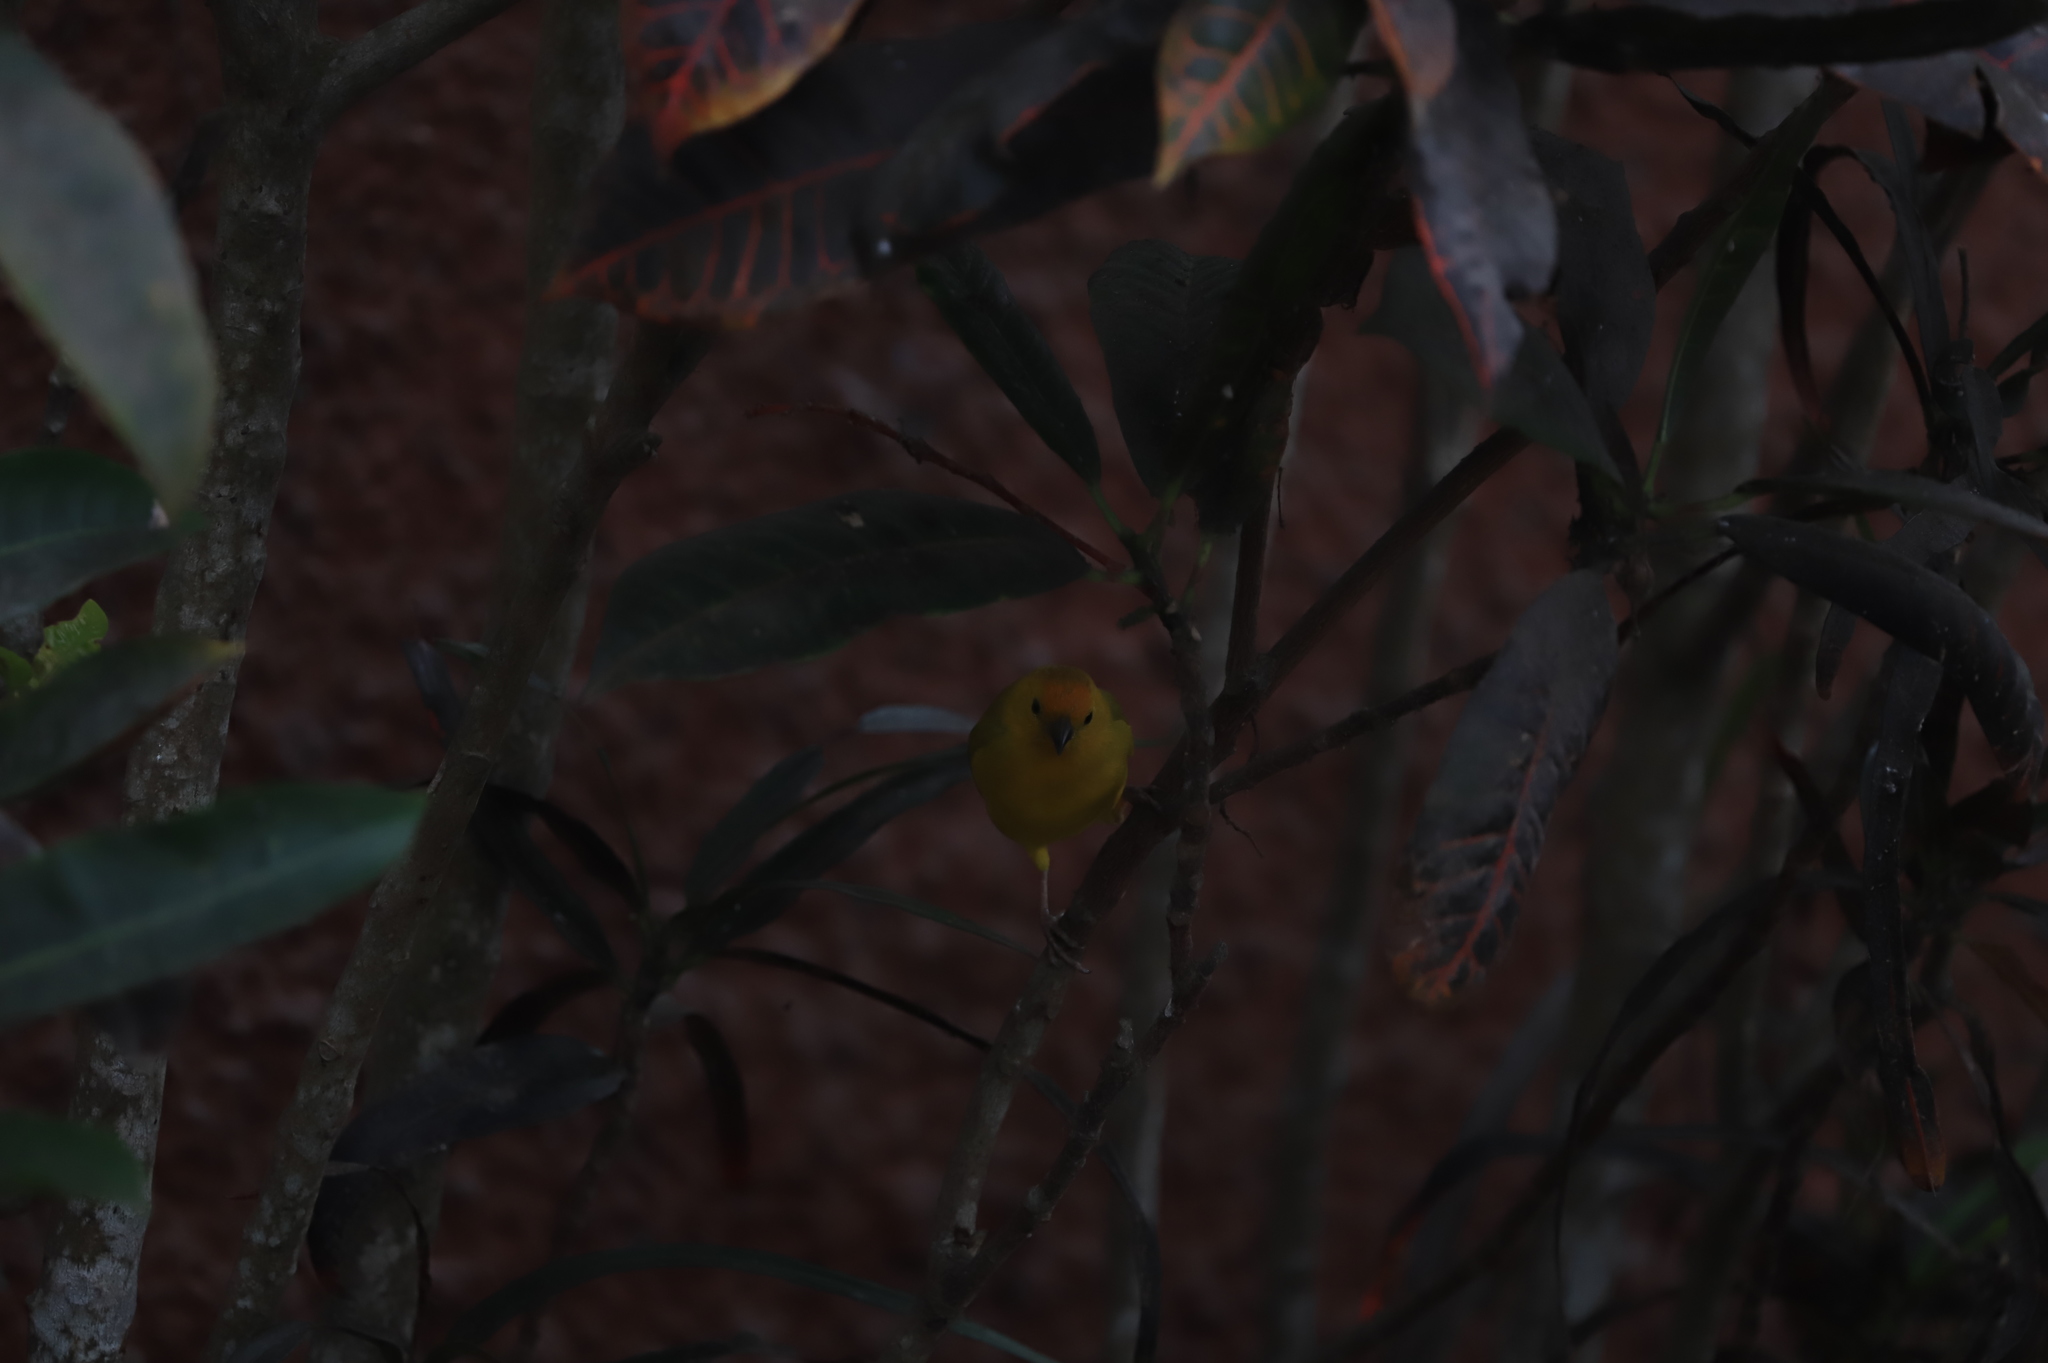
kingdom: Animalia
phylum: Chordata
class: Aves
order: Passeriformes
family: Thraupidae
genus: Sicalis
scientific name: Sicalis flaveola
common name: Saffron finch
